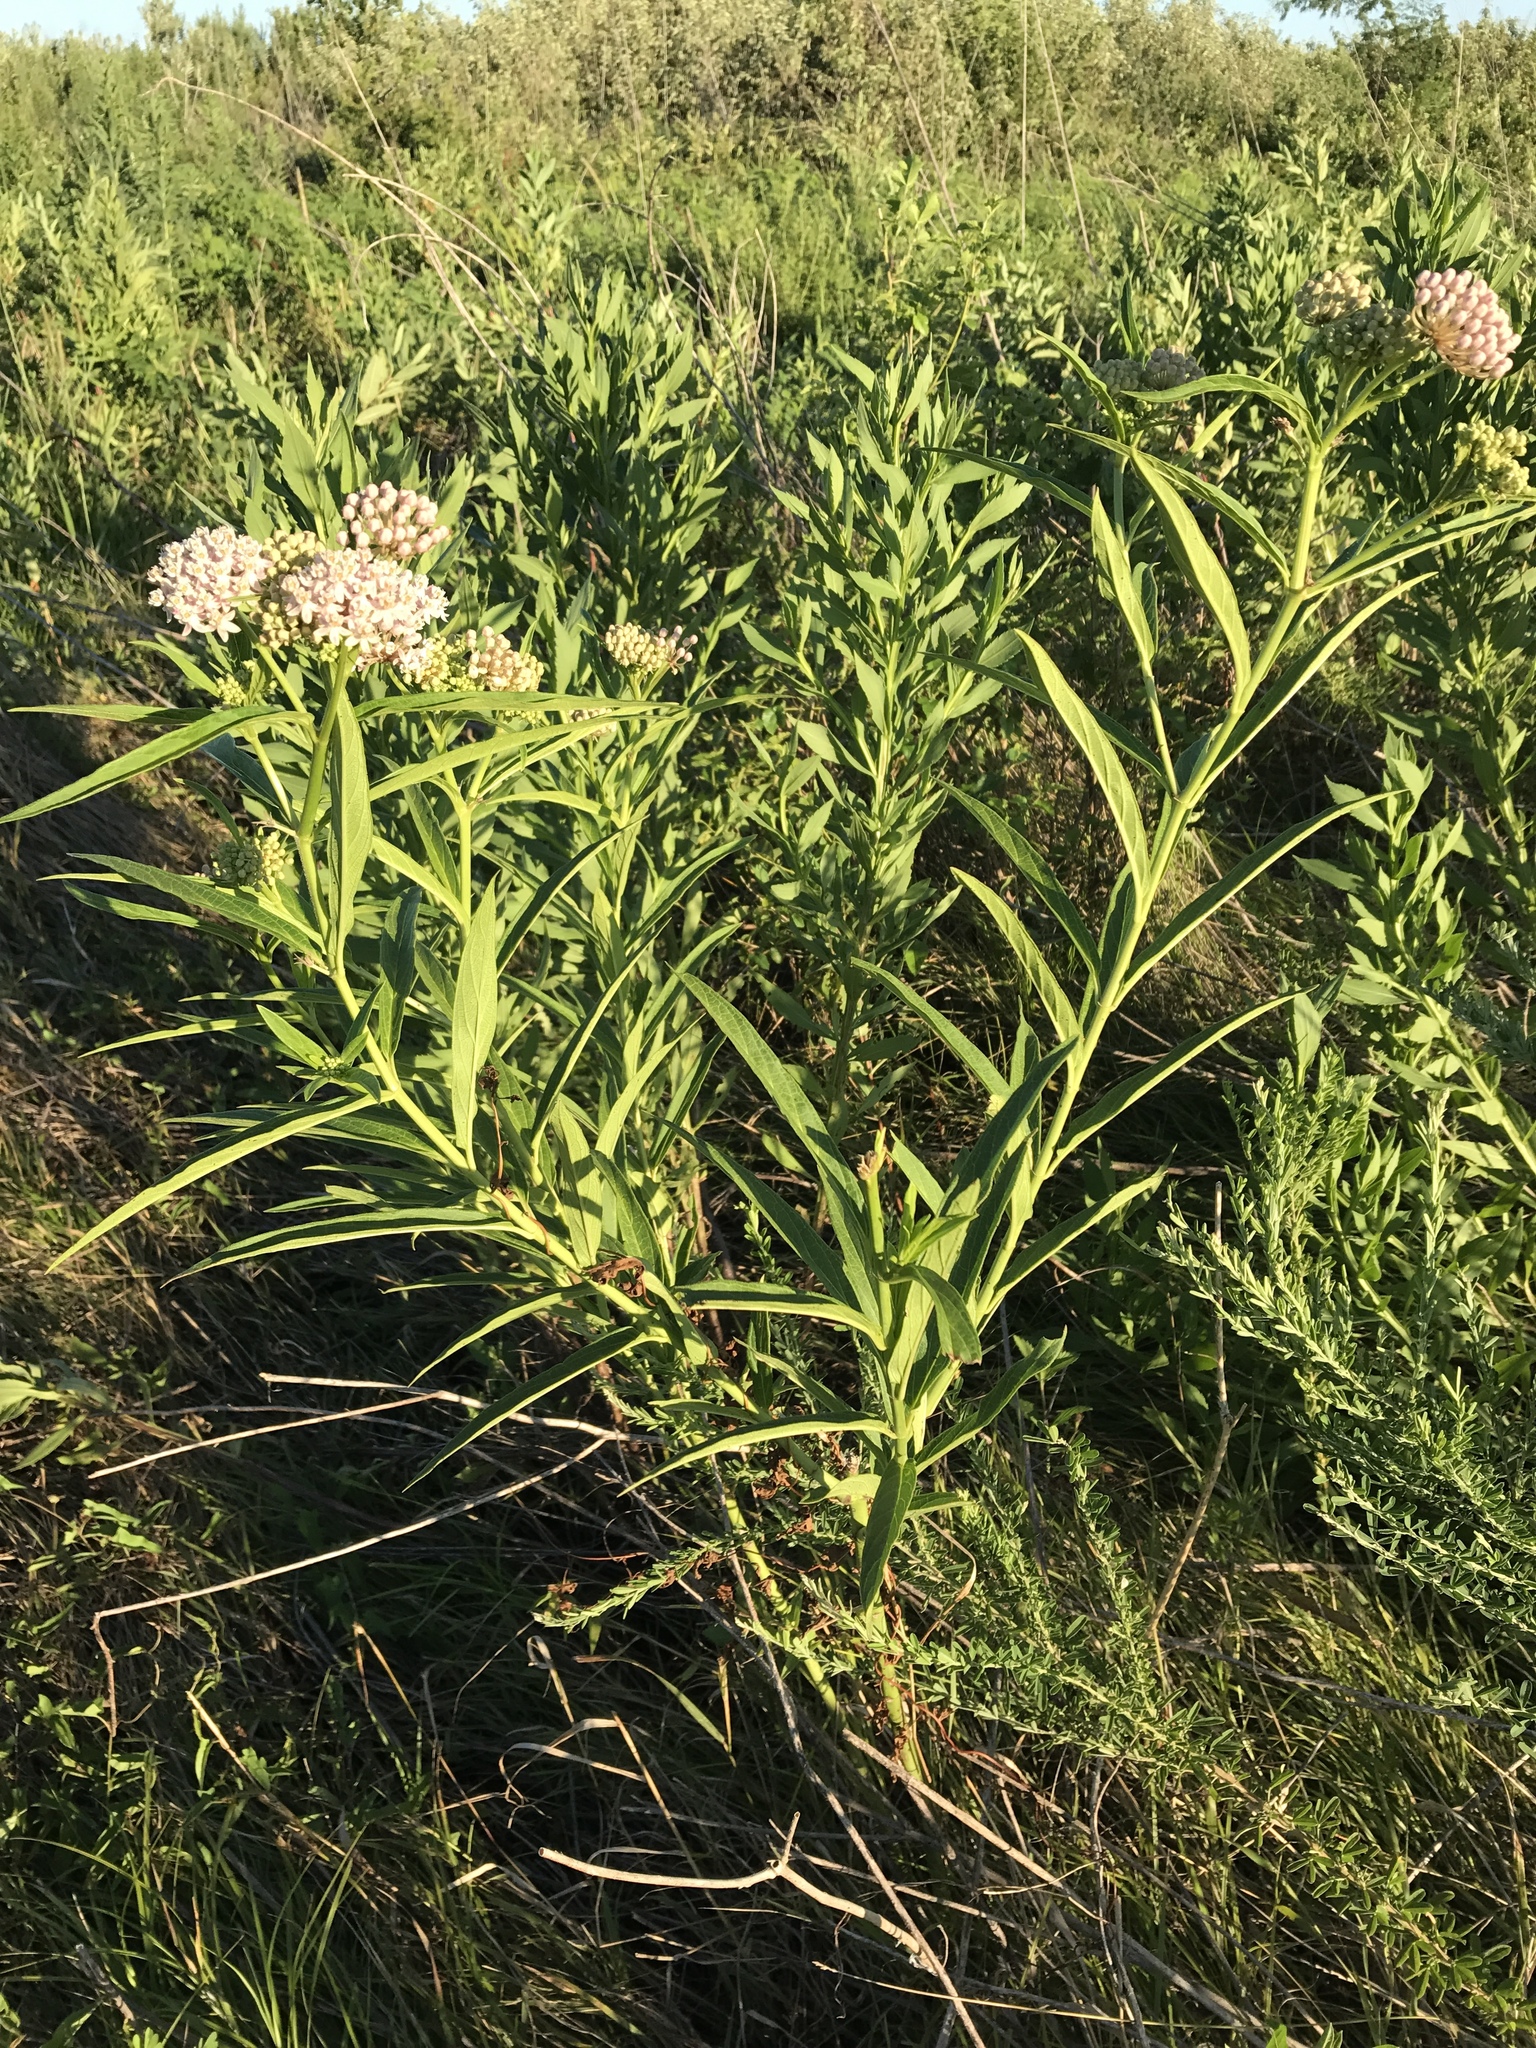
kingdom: Plantae
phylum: Tracheophyta
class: Magnoliopsida
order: Gentianales
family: Apocynaceae
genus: Asclepias
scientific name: Asclepias incarnata
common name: Swamp milkweed
